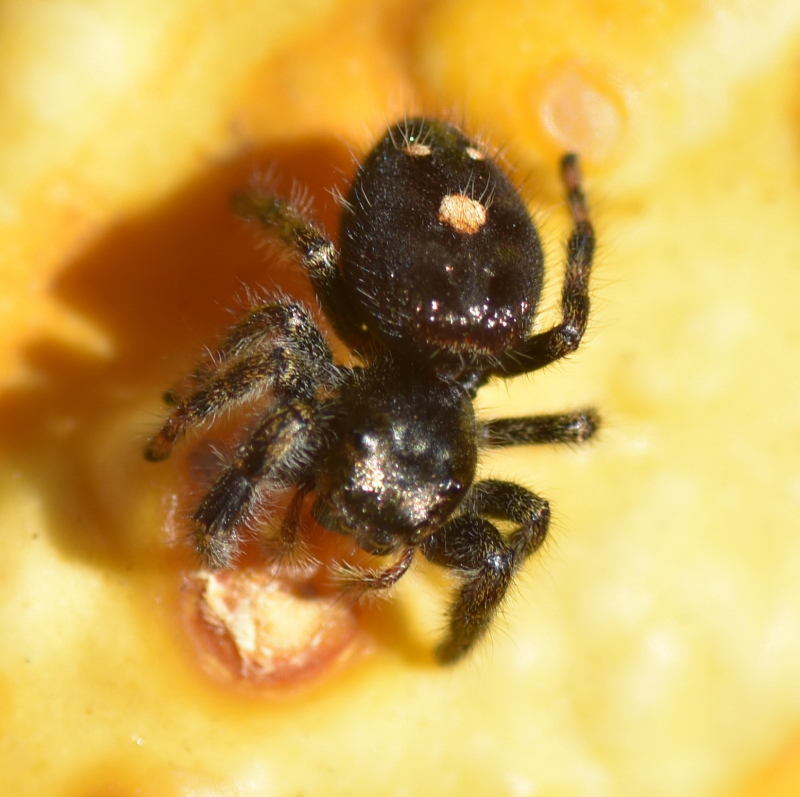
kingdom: Animalia
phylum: Arthropoda
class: Arachnida
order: Araneae
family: Salticidae
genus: Phidippus
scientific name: Phidippus audax
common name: Bold jumper
